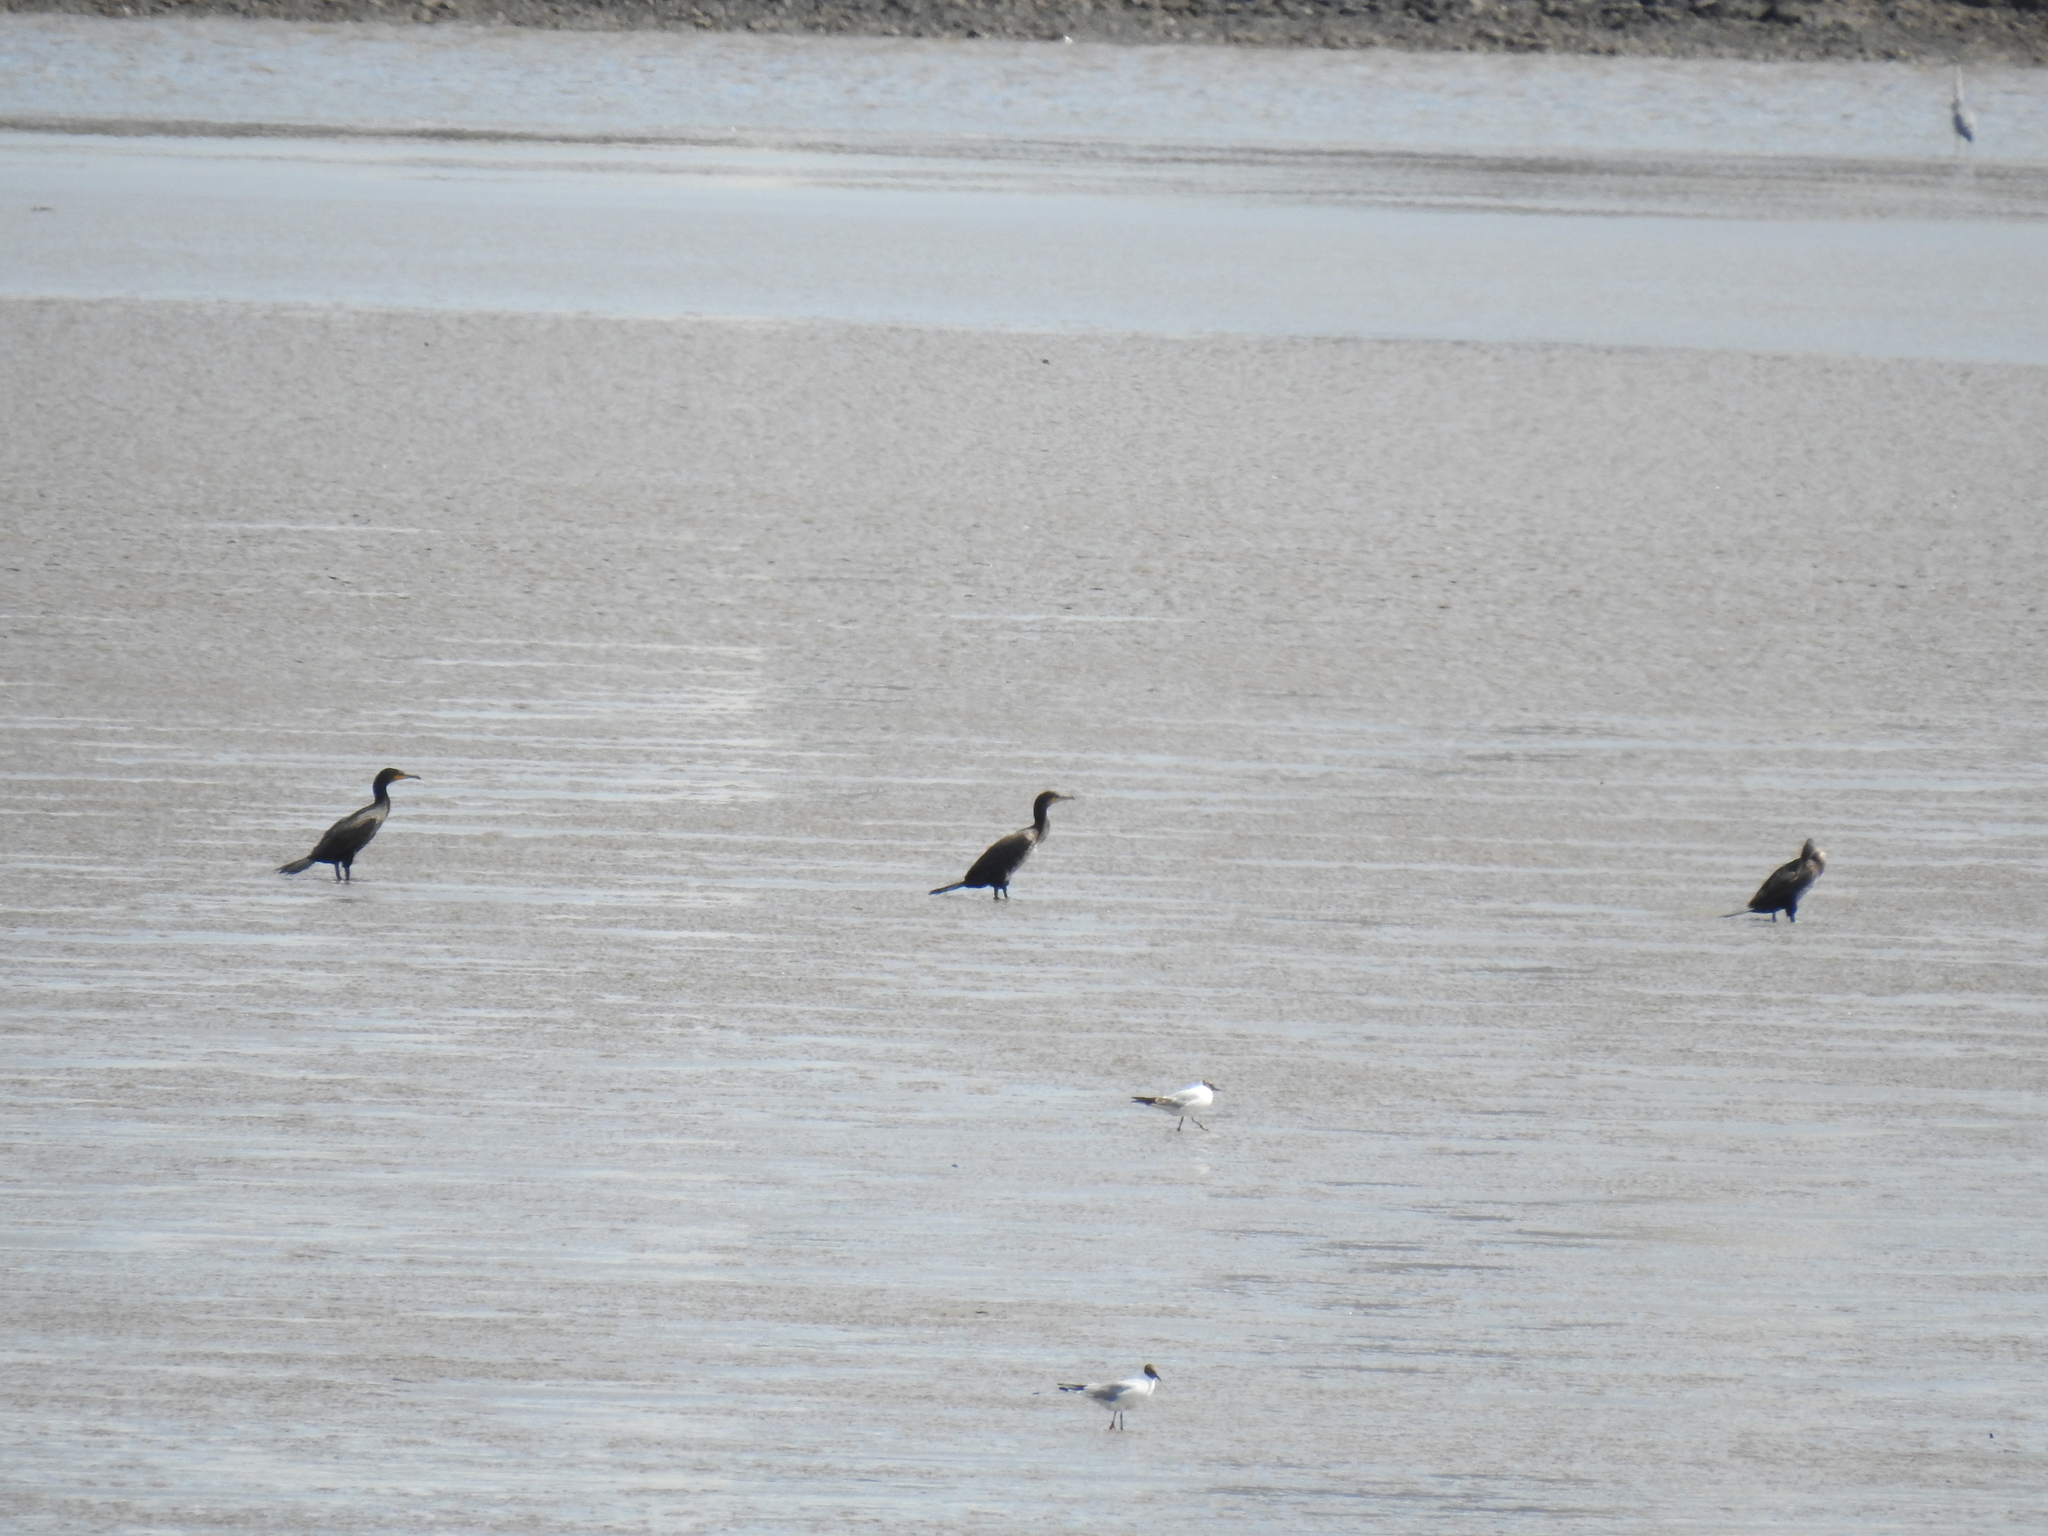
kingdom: Animalia
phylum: Chordata
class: Aves
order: Suliformes
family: Phalacrocoracidae
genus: Phalacrocorax
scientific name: Phalacrocorax carbo
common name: Great cormorant
